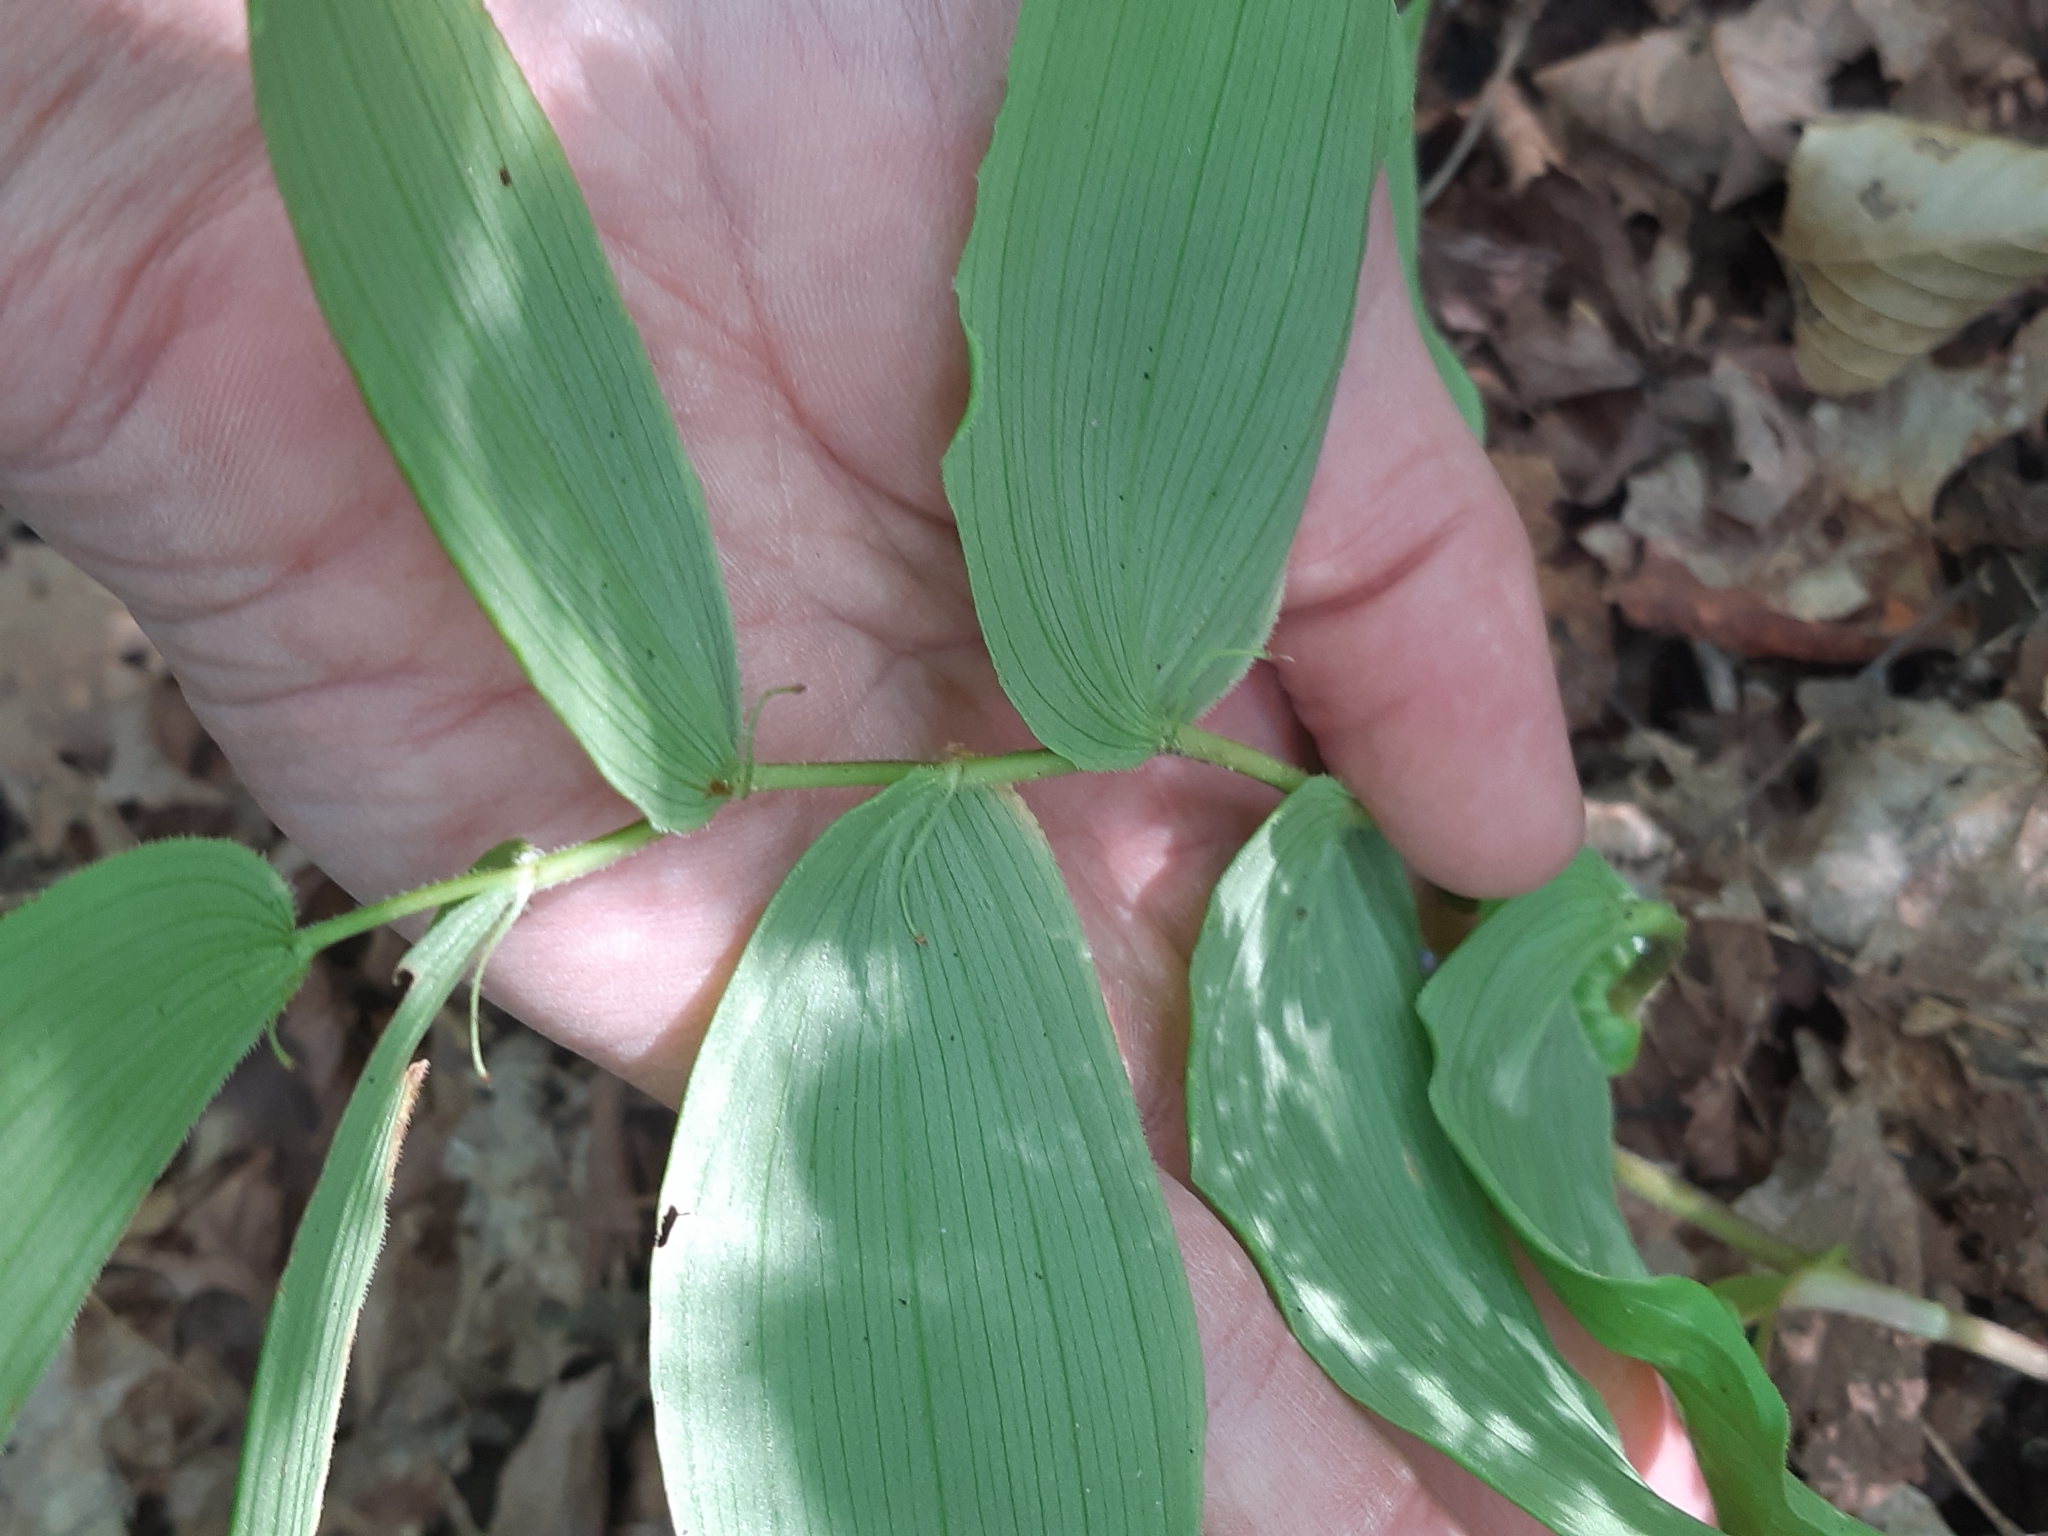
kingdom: Plantae
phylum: Tracheophyta
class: Liliopsida
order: Liliales
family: Liliaceae
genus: Streptopus
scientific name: Streptopus lanceolatus
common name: Rose mandarin
